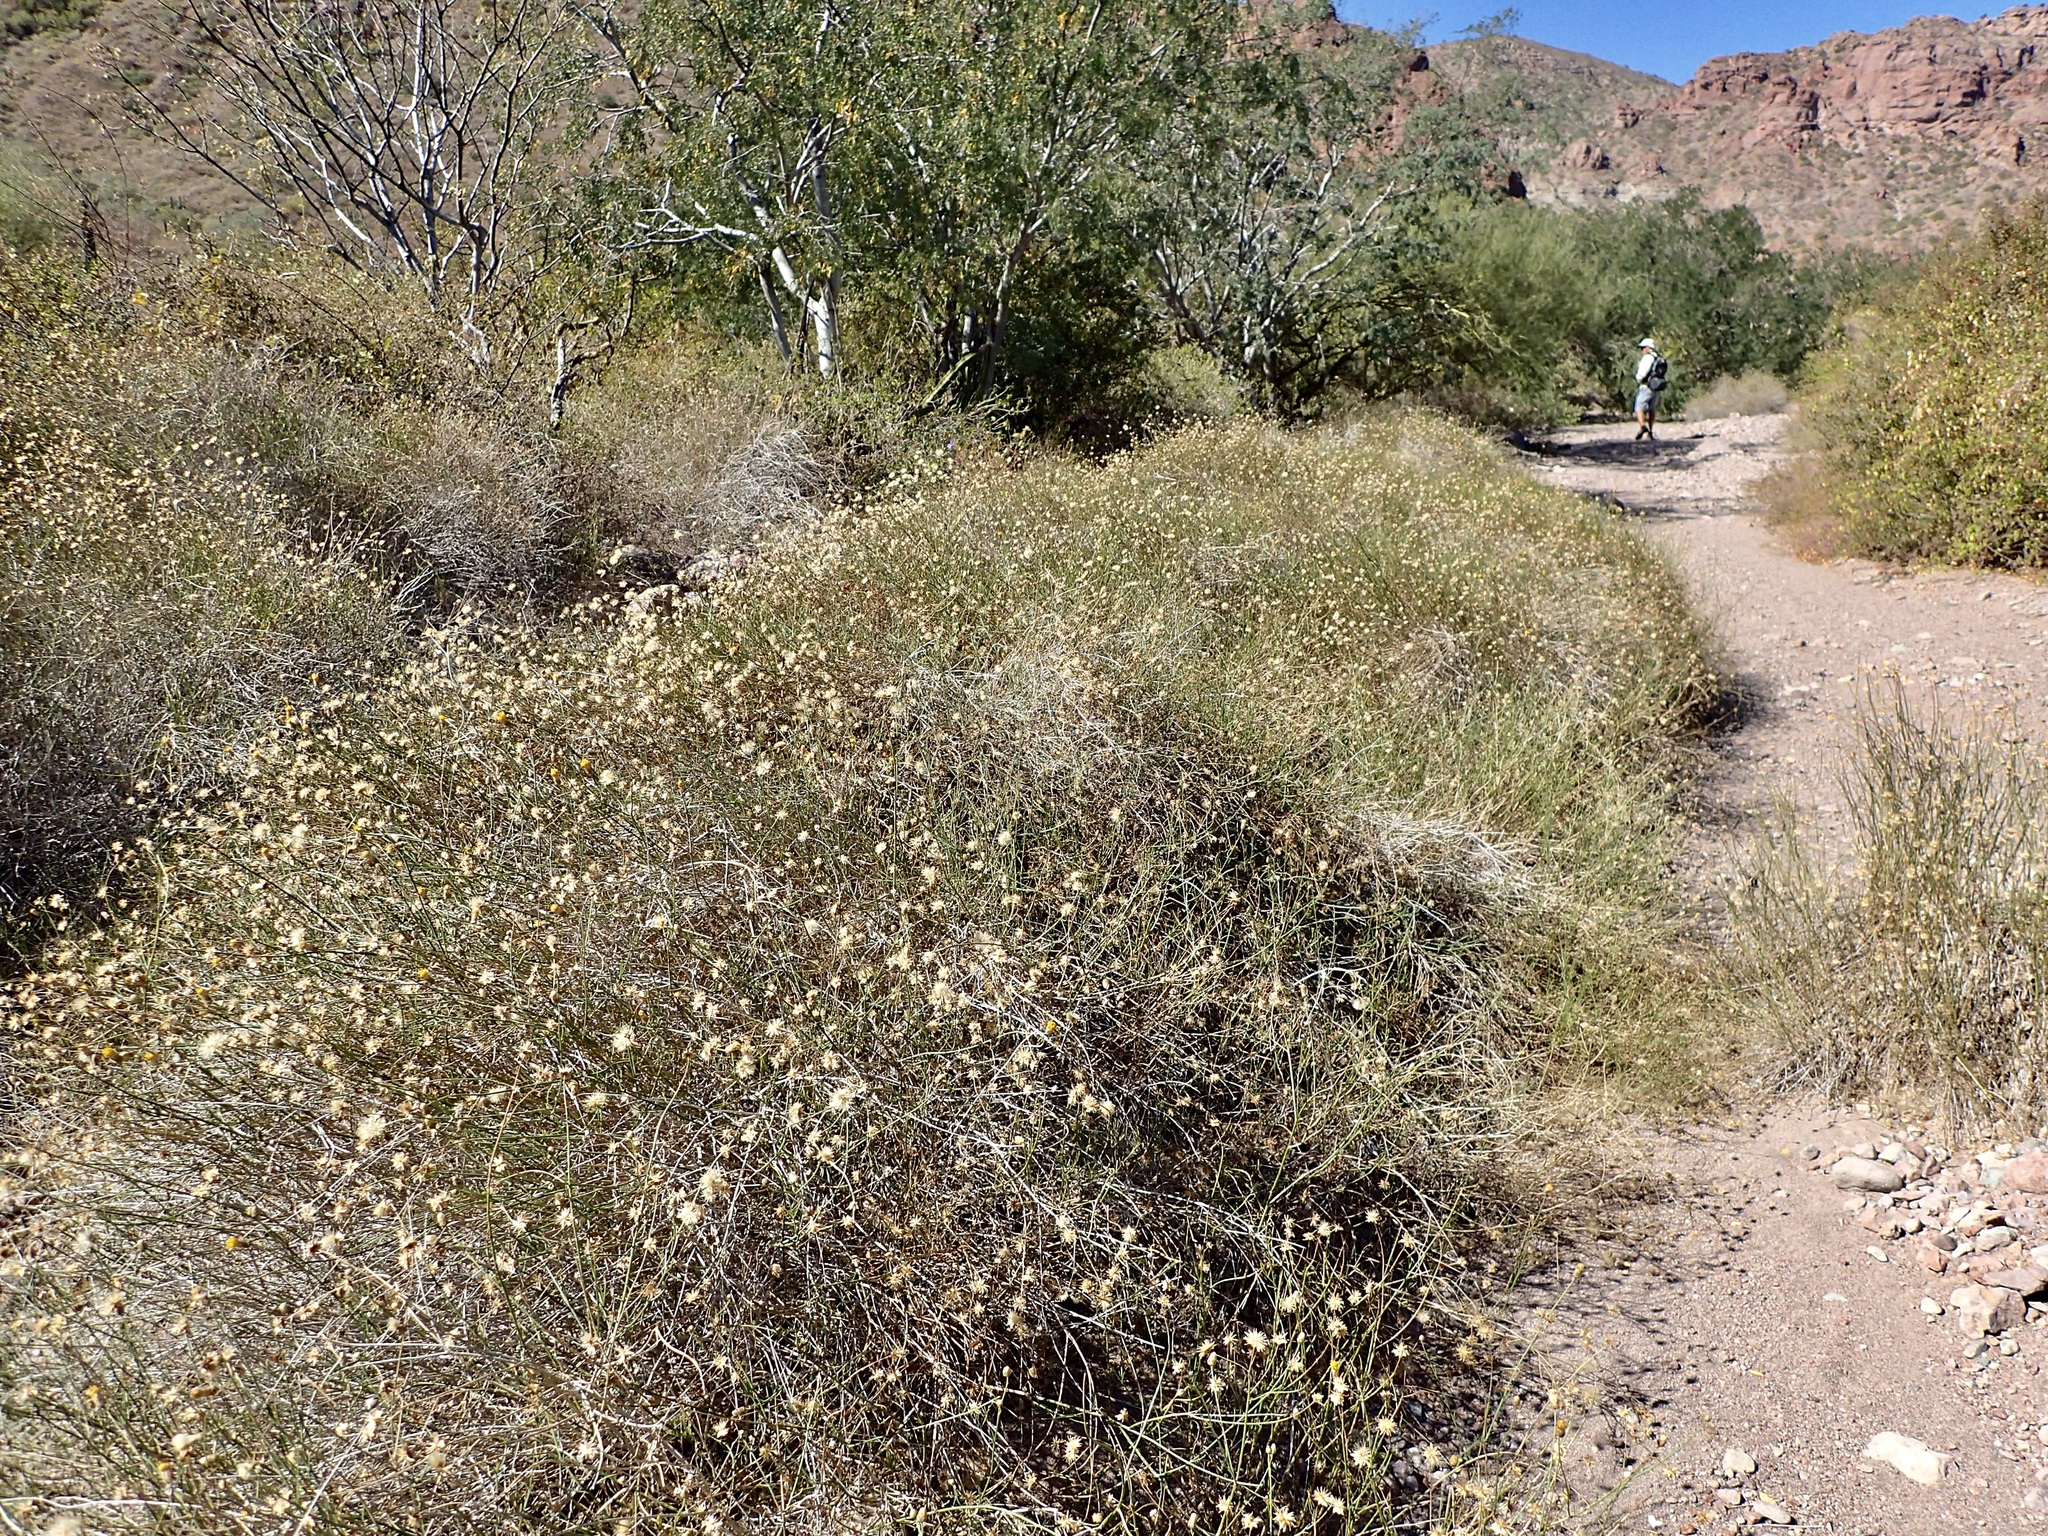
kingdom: Plantae
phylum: Tracheophyta
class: Magnoliopsida
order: Asterales
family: Asteraceae
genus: Bebbia
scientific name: Bebbia juncea
